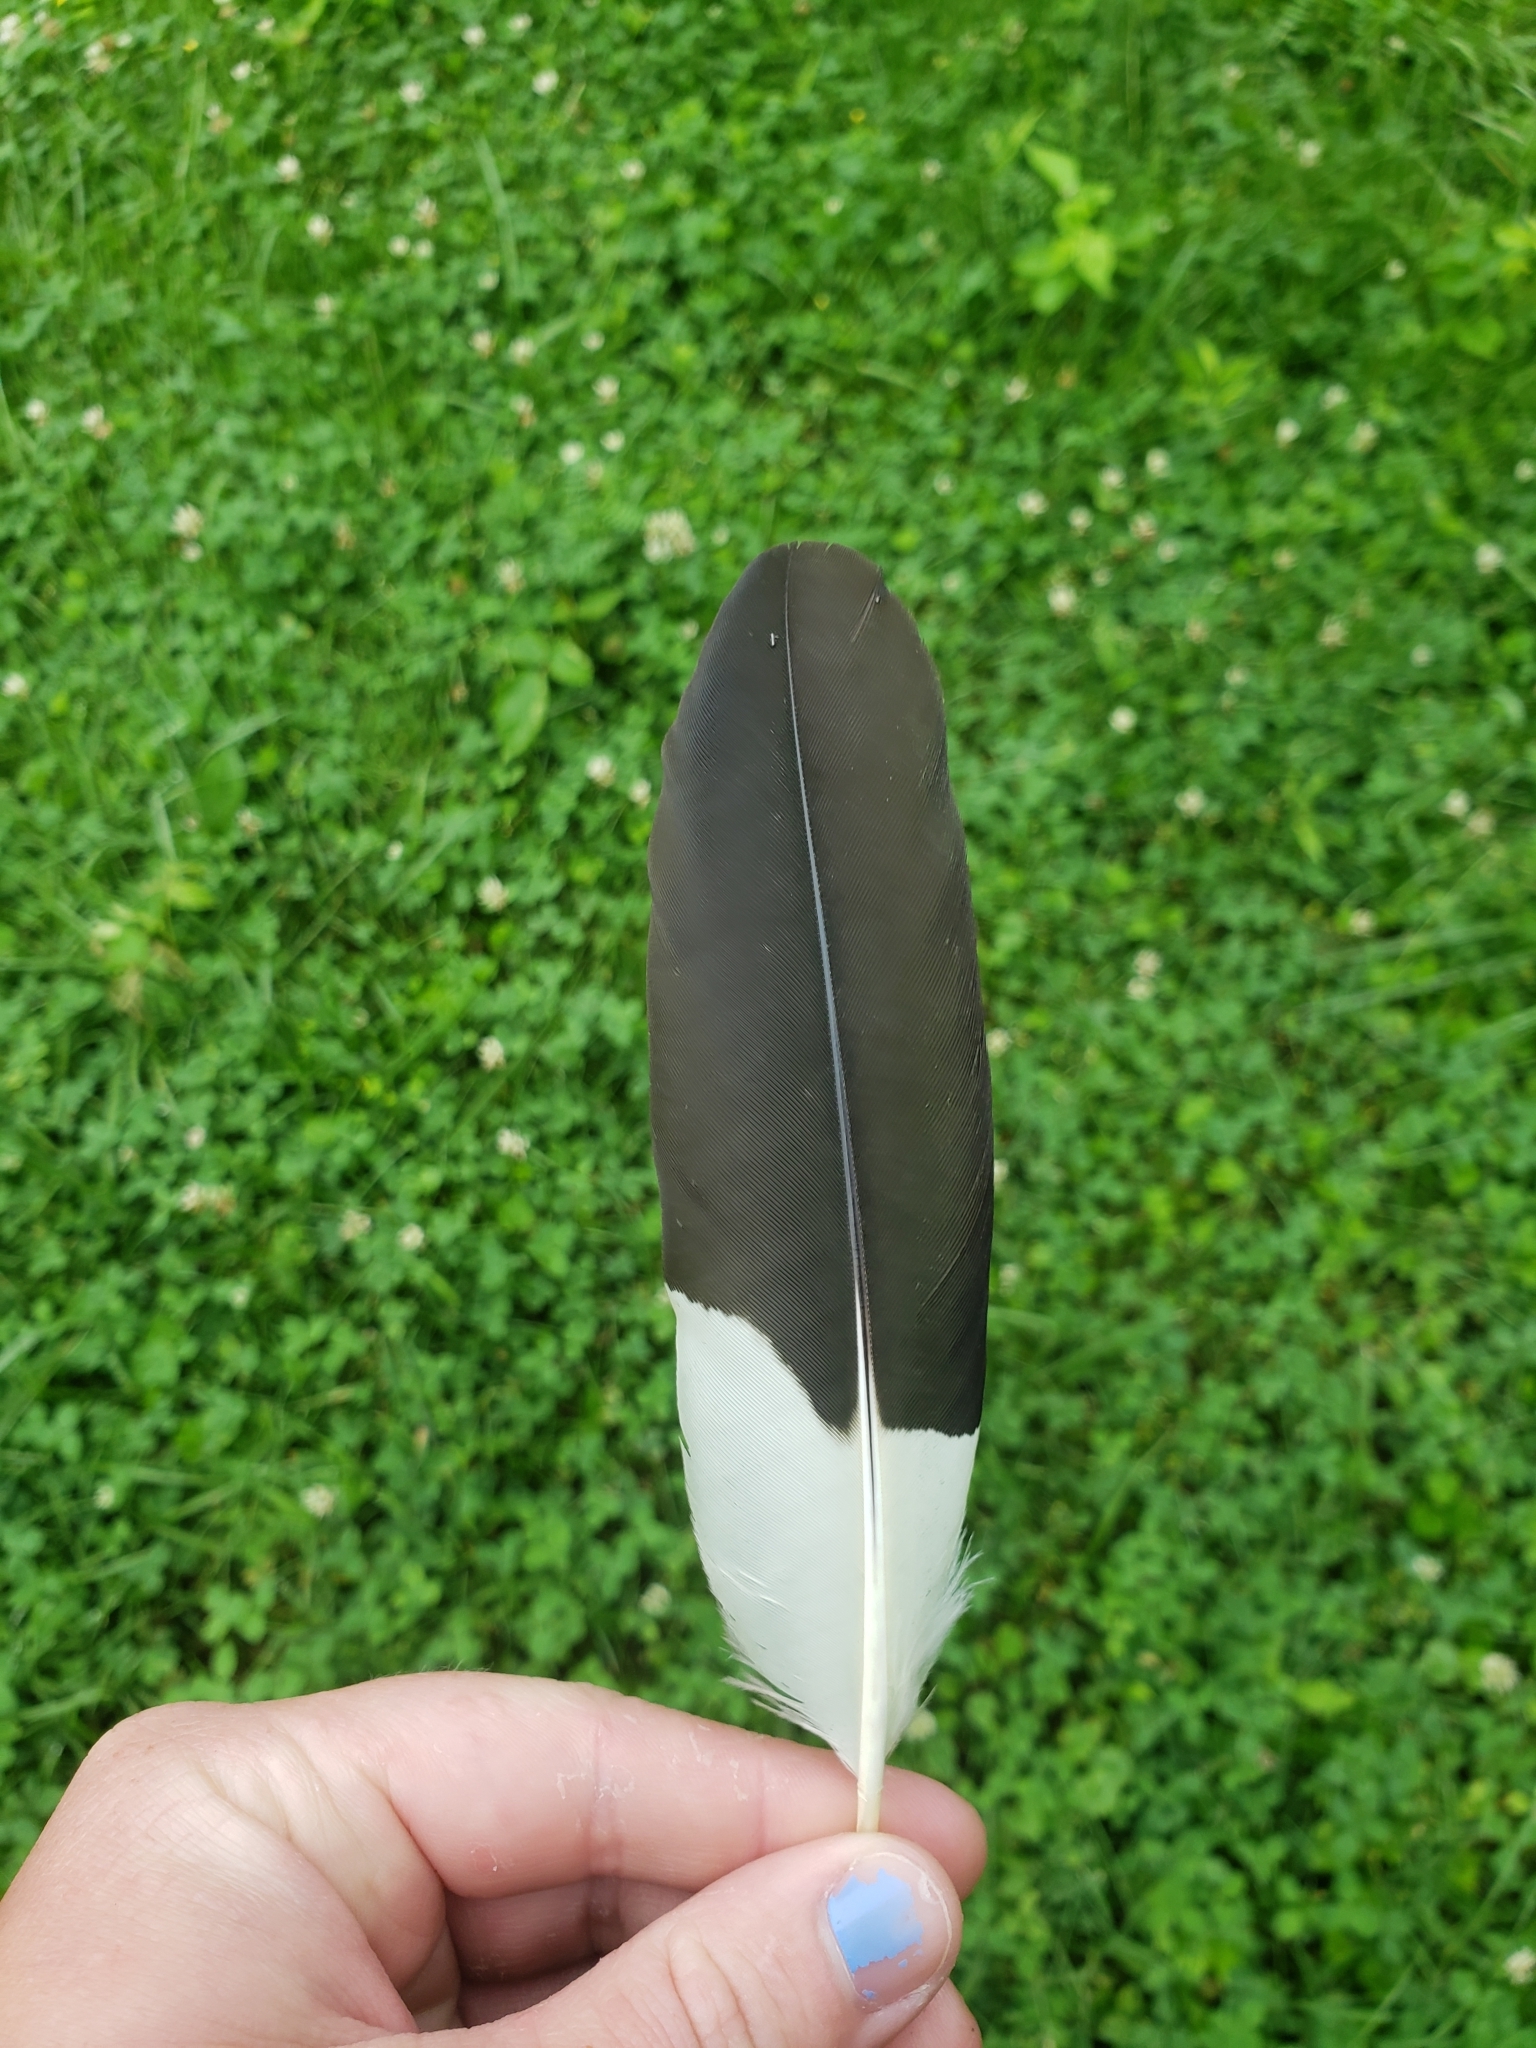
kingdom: Animalia
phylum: Chordata
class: Aves
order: Piciformes
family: Picidae
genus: Dryocopus
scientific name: Dryocopus pileatus
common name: Pileated woodpecker
